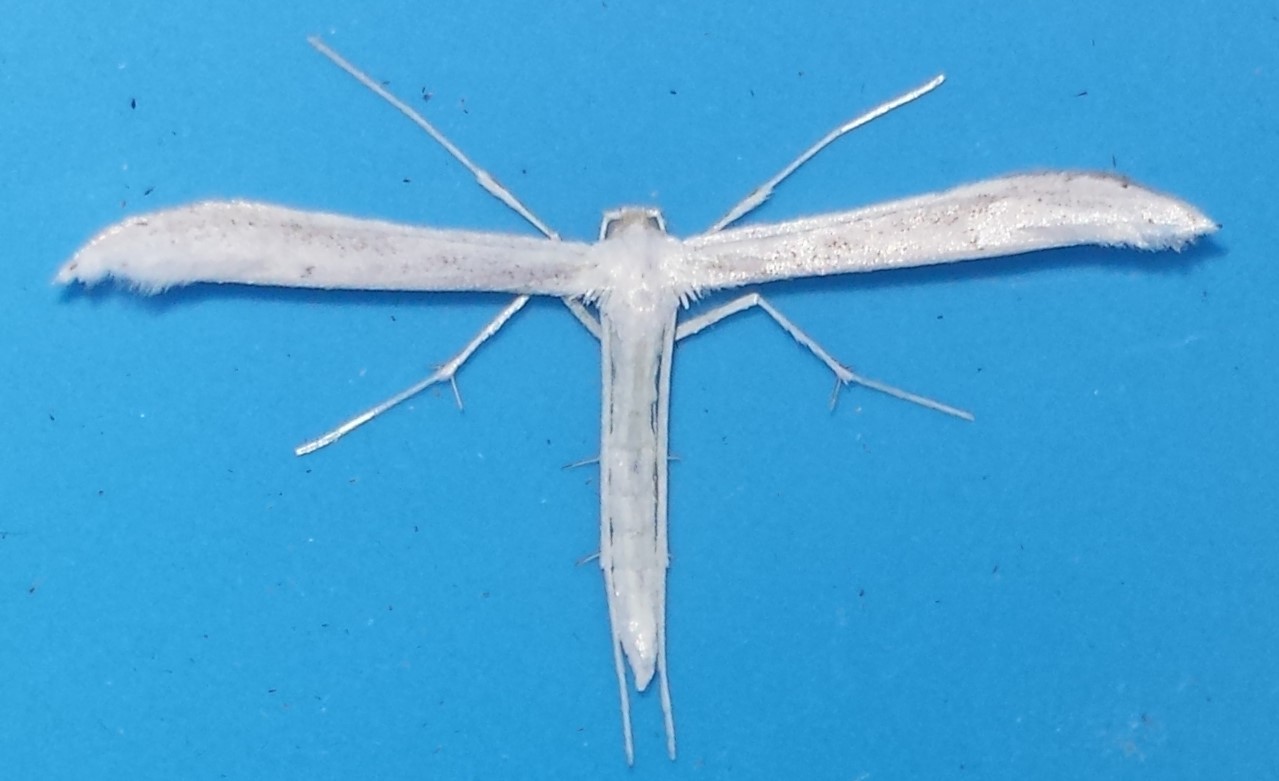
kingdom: Animalia
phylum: Arthropoda
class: Insecta
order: Lepidoptera
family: Pterophoridae
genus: Hellinsia
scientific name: Hellinsia homodactylus
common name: Plain plume moth
